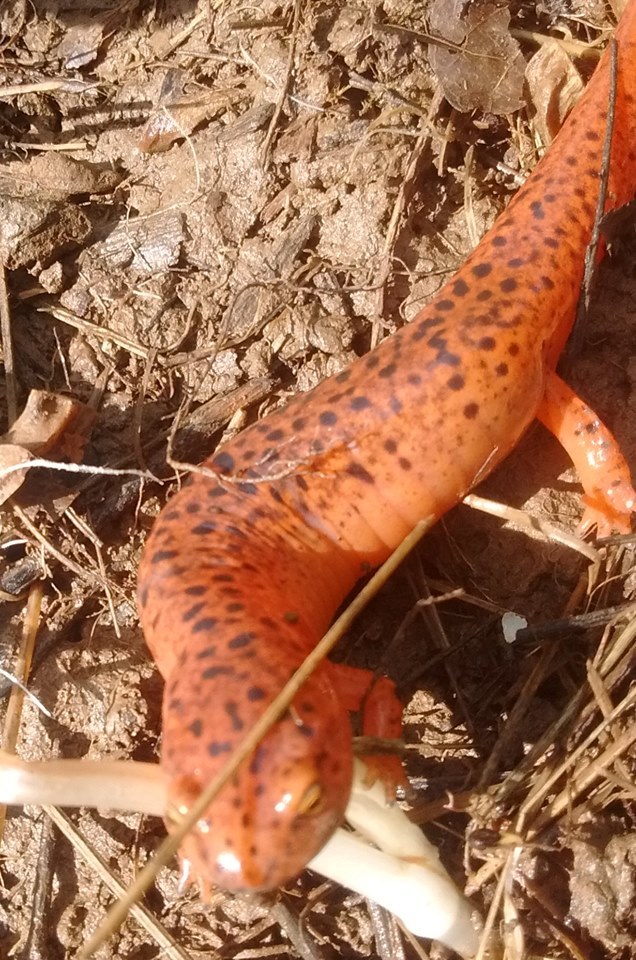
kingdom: Animalia
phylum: Chordata
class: Amphibia
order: Caudata
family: Plethodontidae
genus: Pseudotriton
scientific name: Pseudotriton ruber
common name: Red salamander
